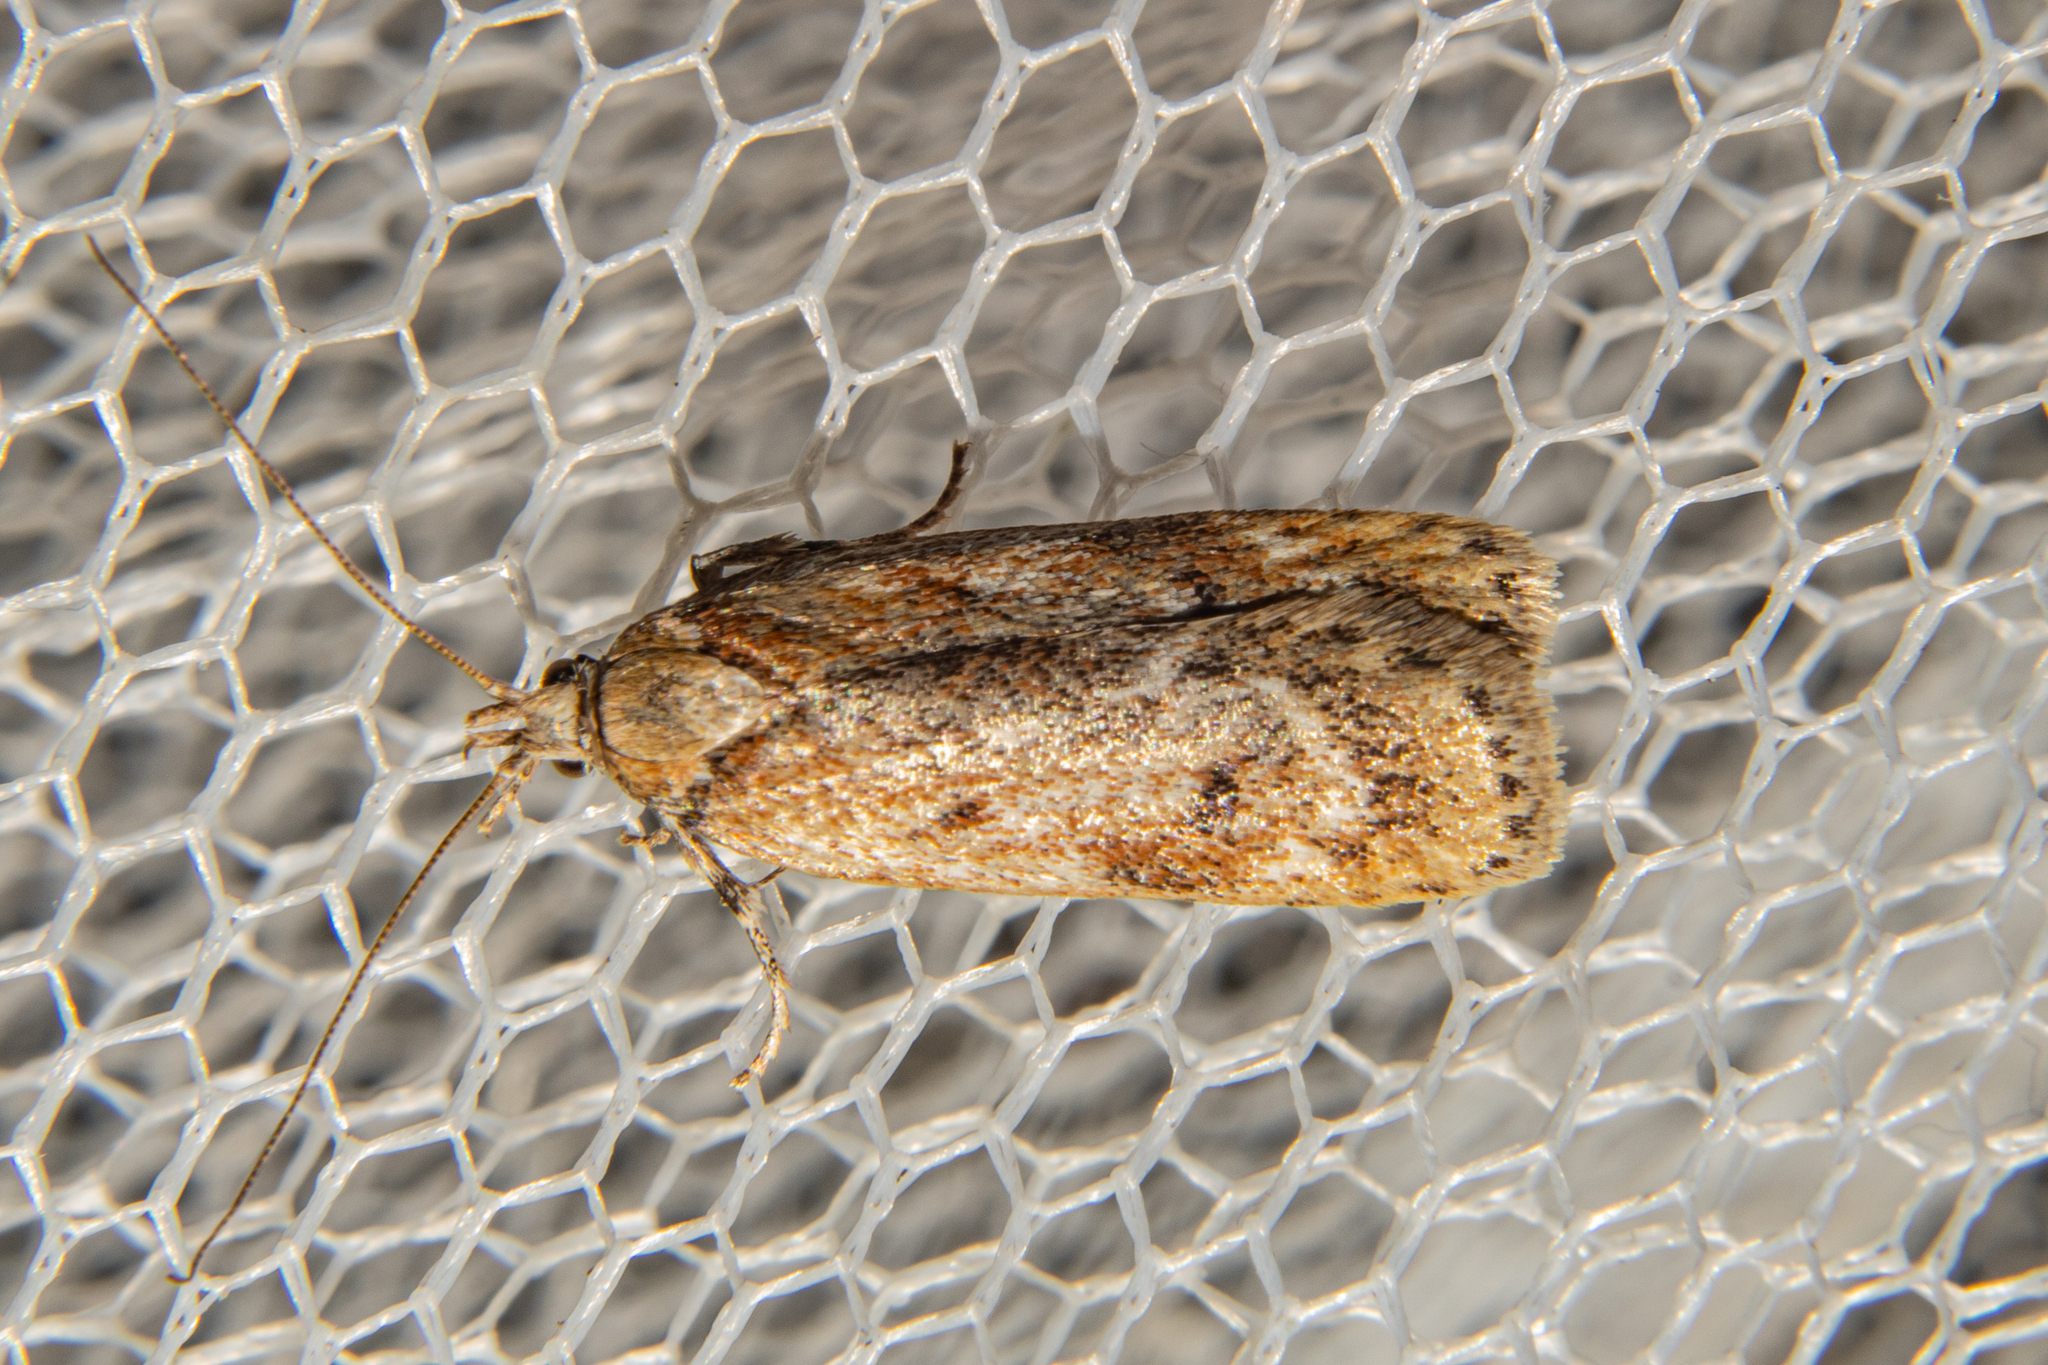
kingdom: Animalia
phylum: Arthropoda
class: Insecta
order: Lepidoptera
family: Depressariidae
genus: Phaeosaces
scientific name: Phaeosaces apocrypta
